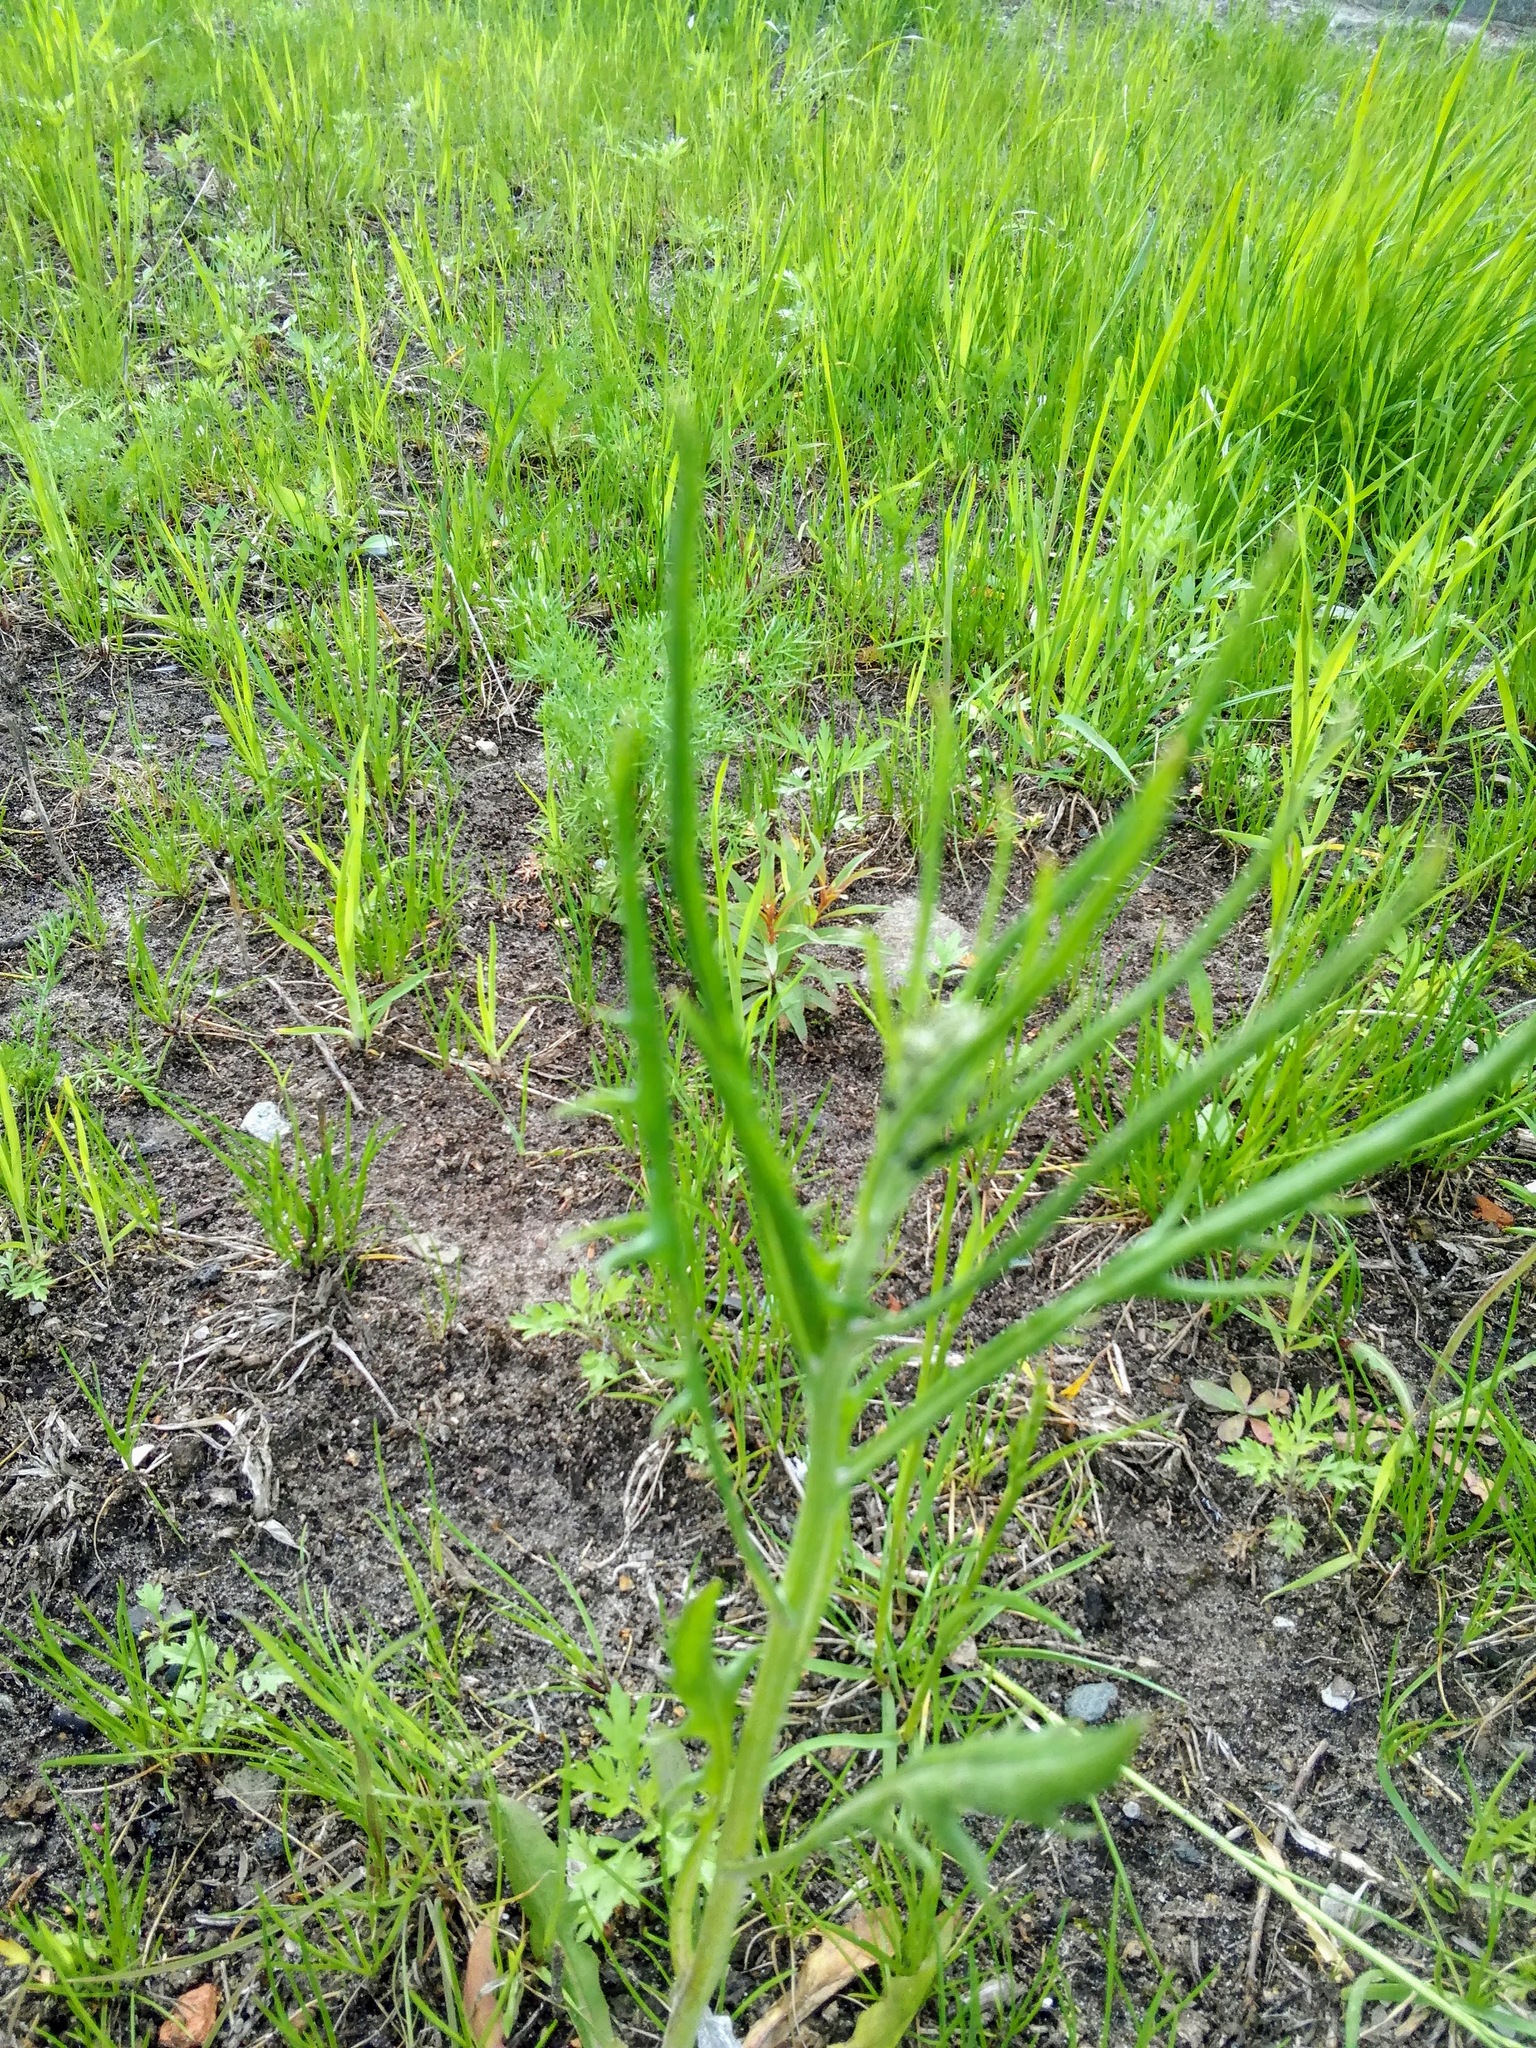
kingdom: Plantae
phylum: Tracheophyta
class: Magnoliopsida
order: Asterales
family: Asteraceae
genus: Crepis
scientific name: Crepis tectorum
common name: Narrow-leaved hawk's-beard
